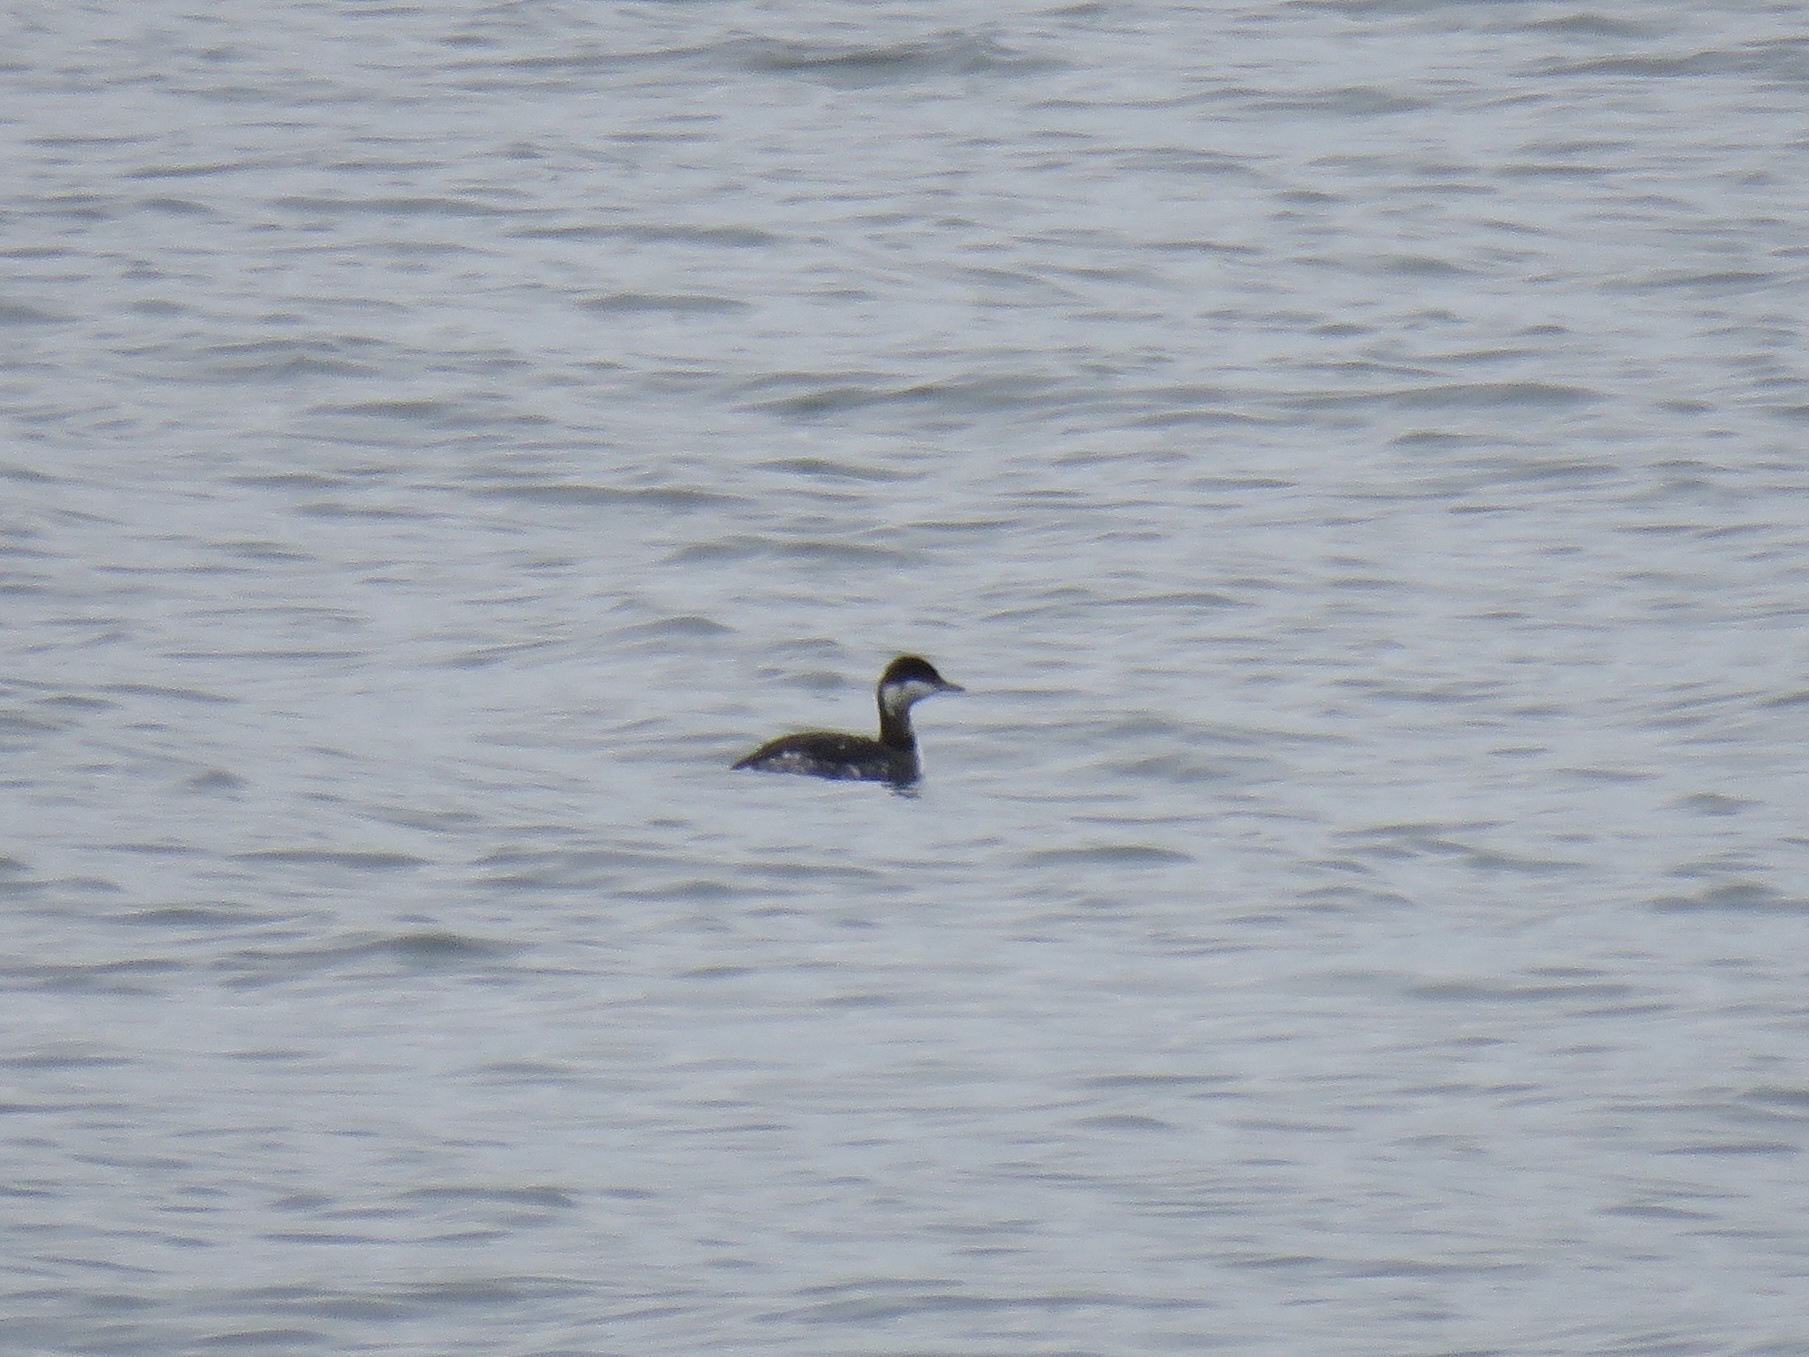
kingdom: Animalia
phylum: Chordata
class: Aves
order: Podicipediformes
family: Podicipedidae
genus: Podiceps
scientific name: Podiceps auritus
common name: Horned grebe
